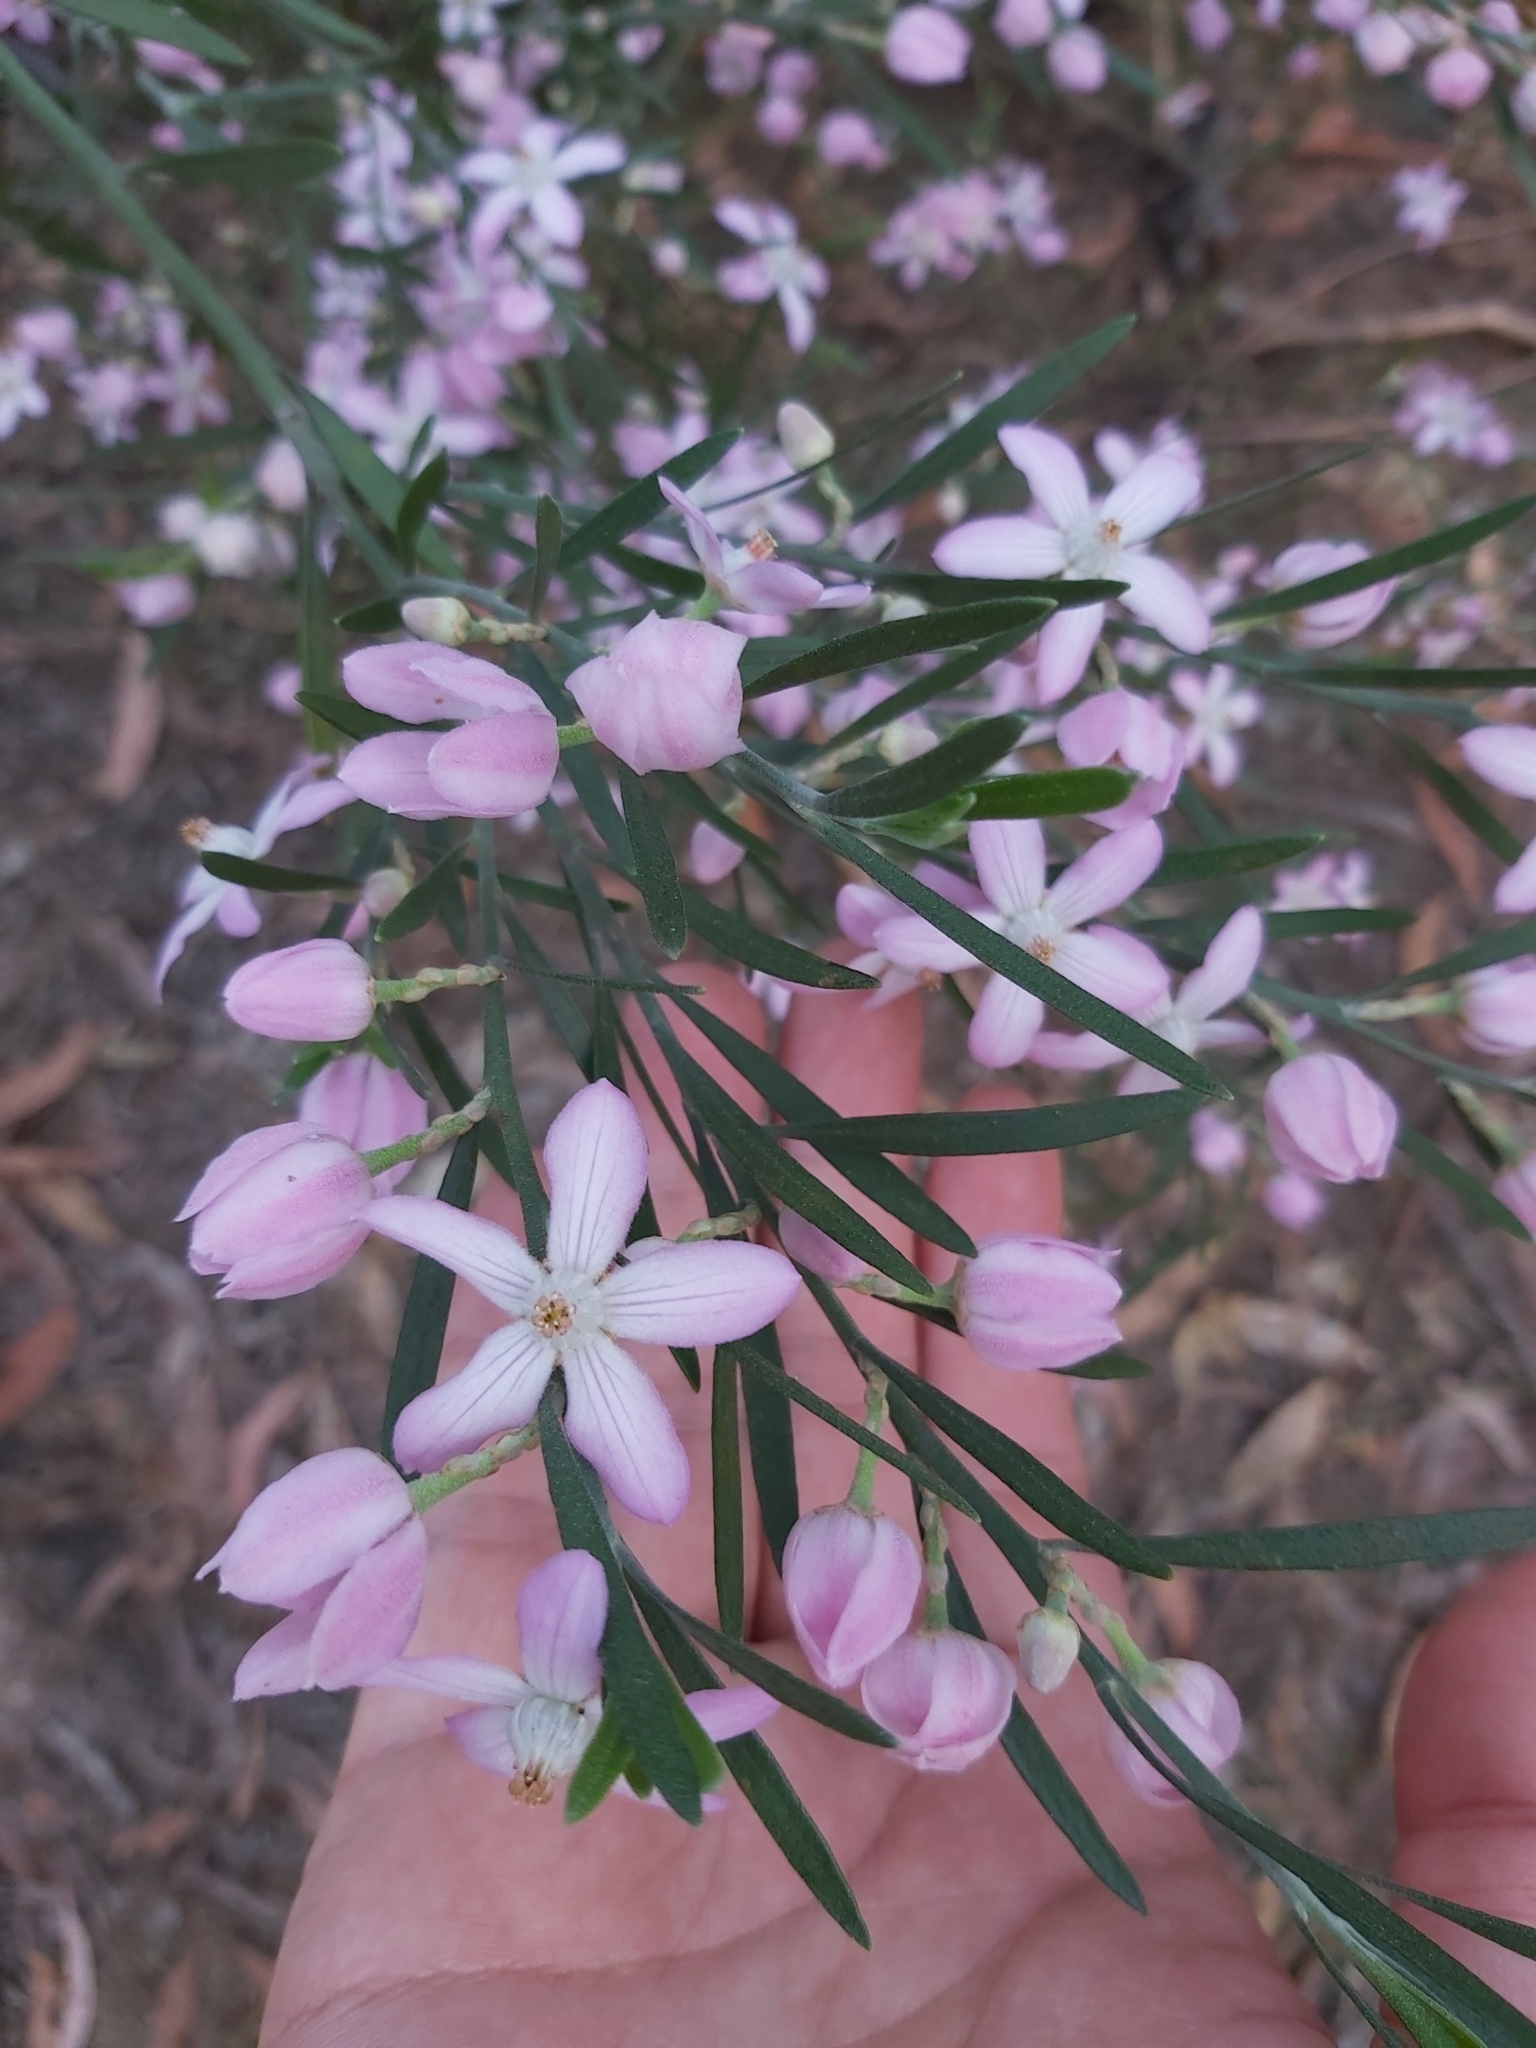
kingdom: Plantae
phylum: Tracheophyta
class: Magnoliopsida
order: Sapindales
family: Rutaceae
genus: Eriostemon
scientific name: Eriostemon australasius
